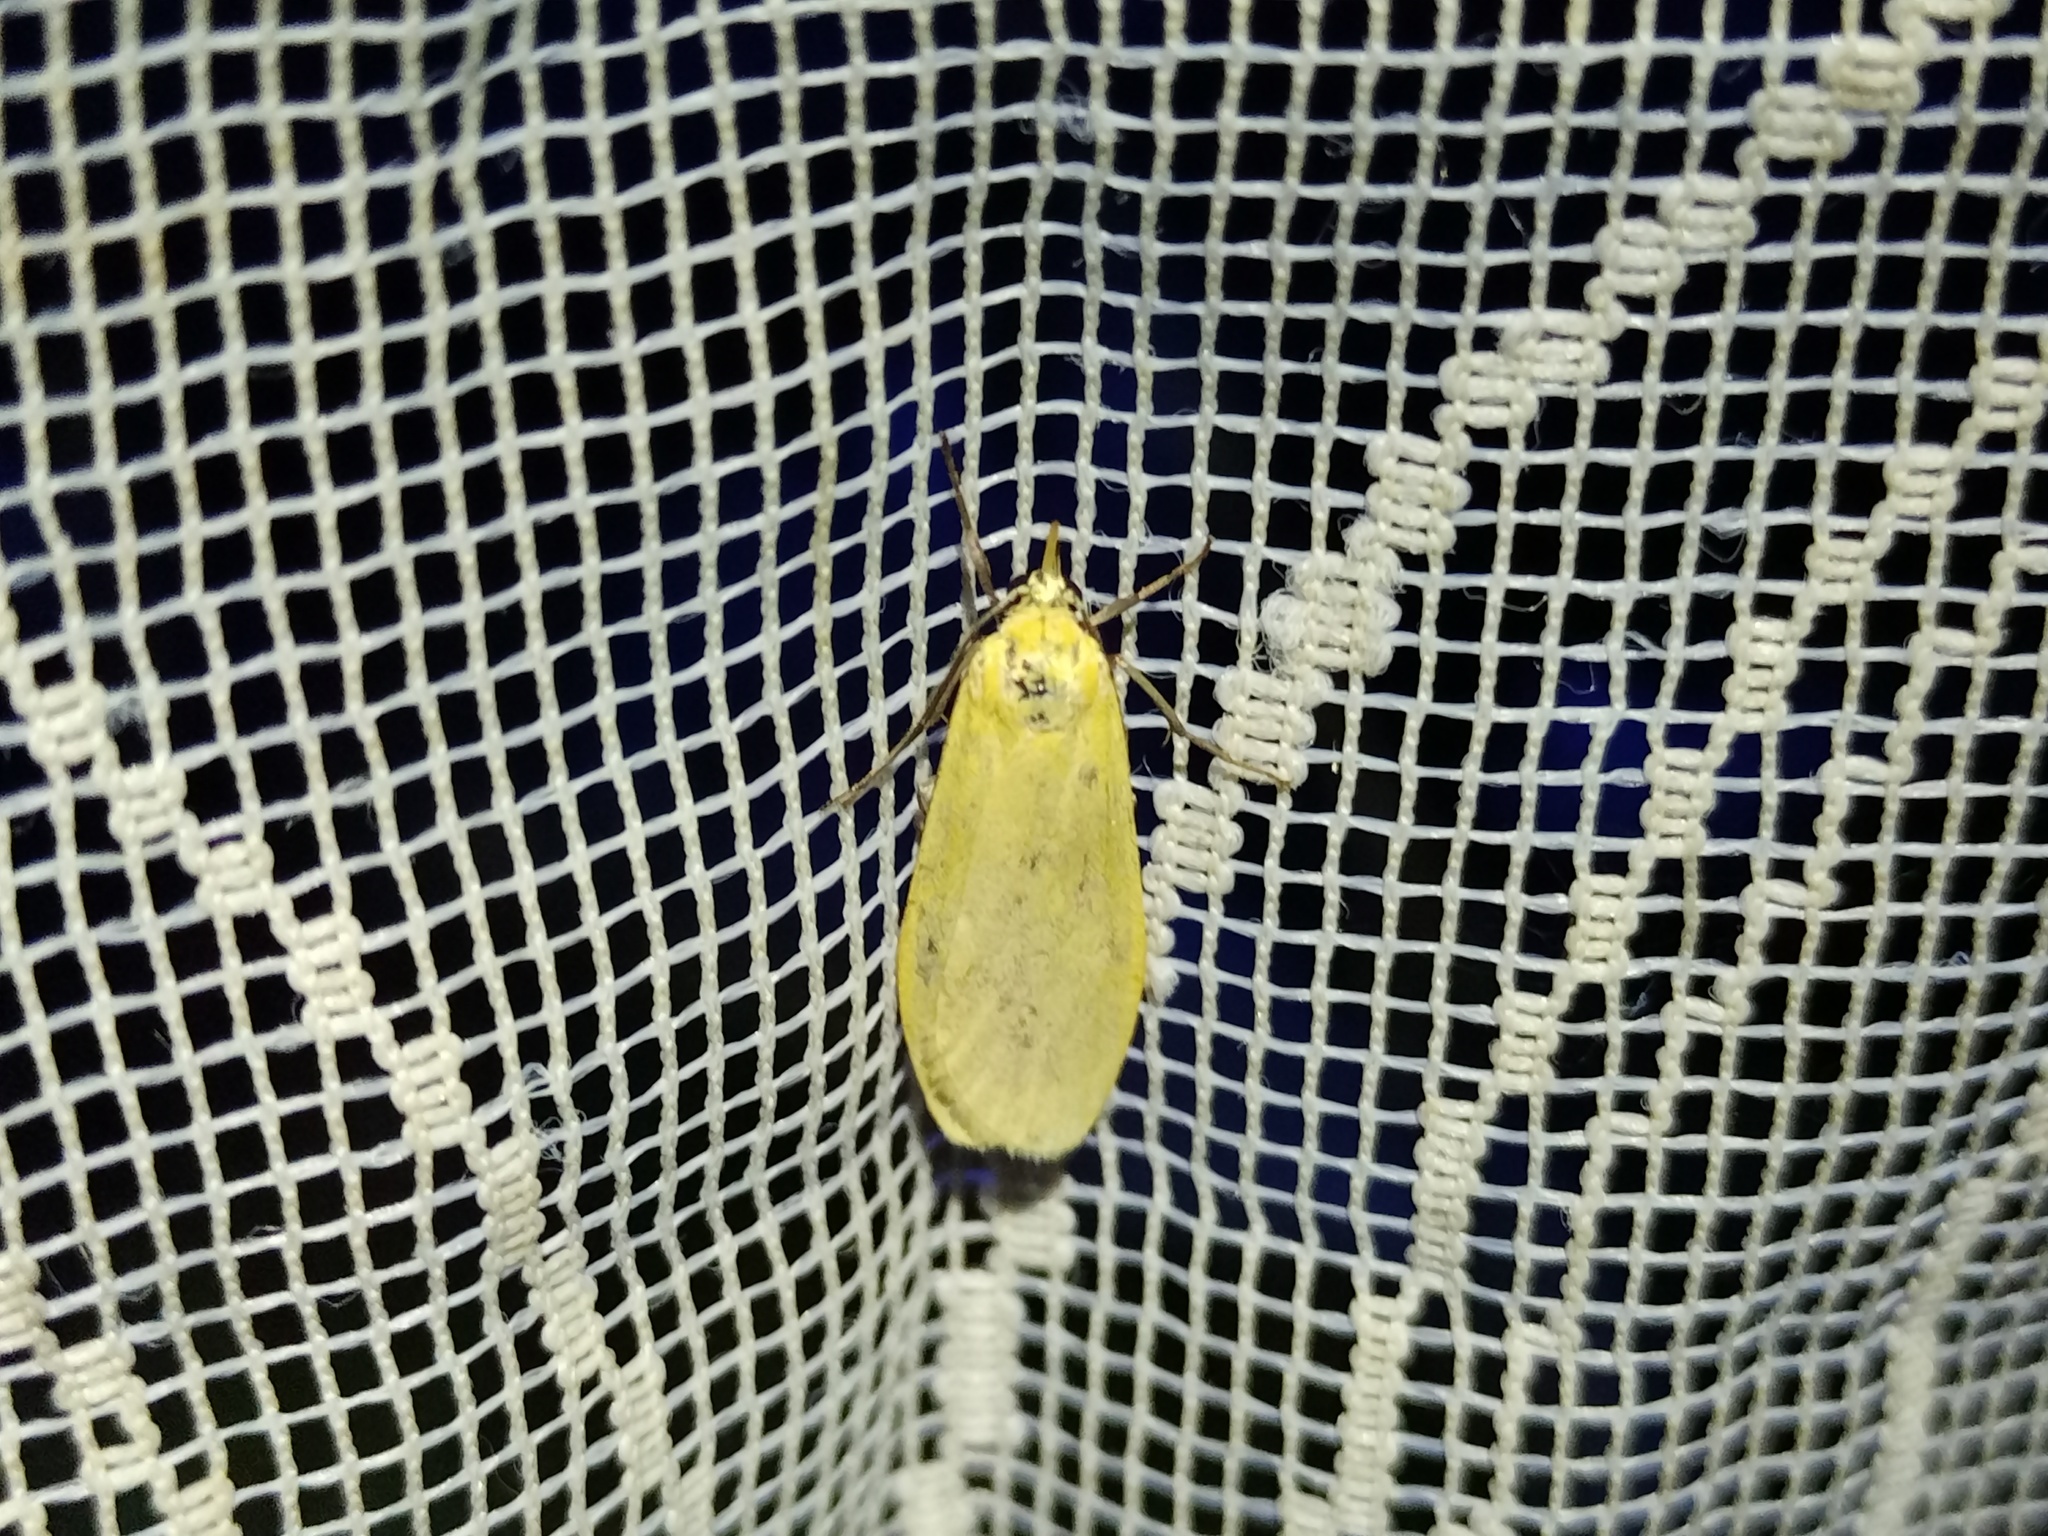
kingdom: Animalia
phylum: Arthropoda
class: Insecta
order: Lepidoptera
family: Erebidae
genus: Wittia
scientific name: Wittia sororcula
